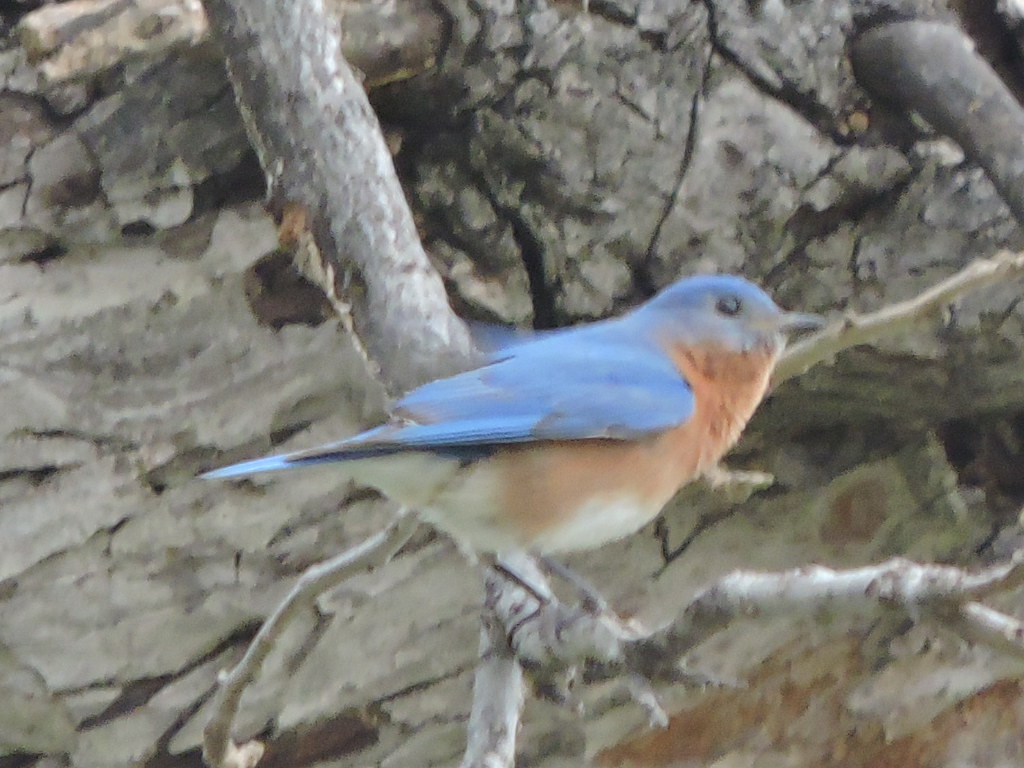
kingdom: Animalia
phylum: Chordata
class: Aves
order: Passeriformes
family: Turdidae
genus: Sialia
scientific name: Sialia sialis
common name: Eastern bluebird
